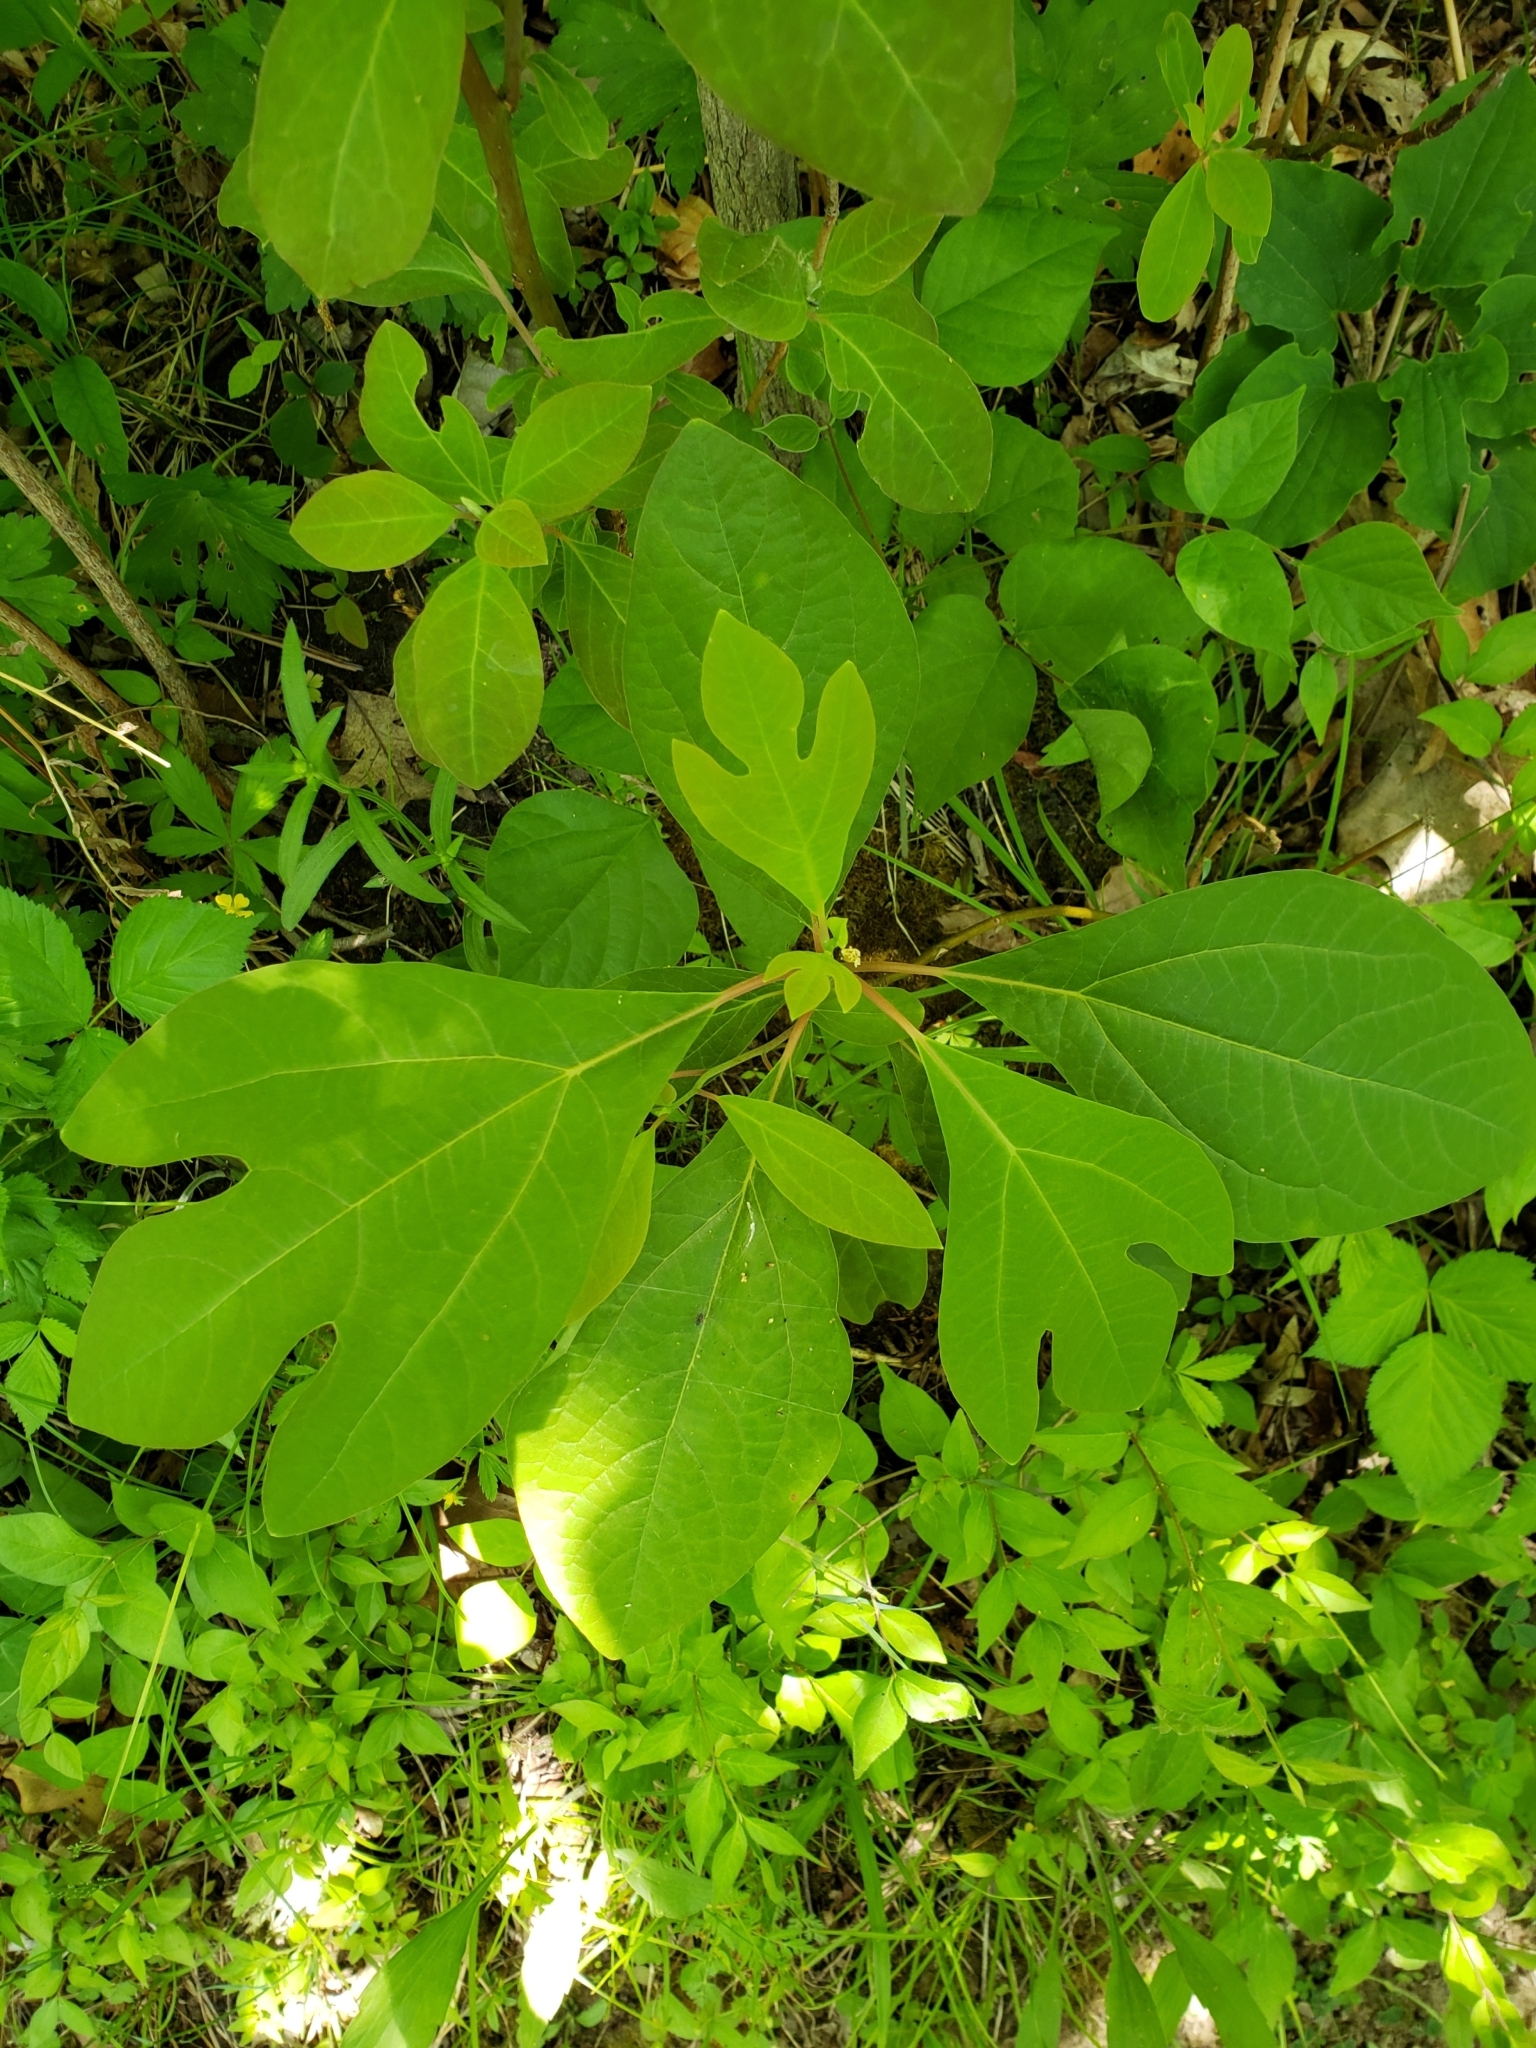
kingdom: Plantae
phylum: Tracheophyta
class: Magnoliopsida
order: Laurales
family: Lauraceae
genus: Sassafras
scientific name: Sassafras albidum
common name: Sassafras
